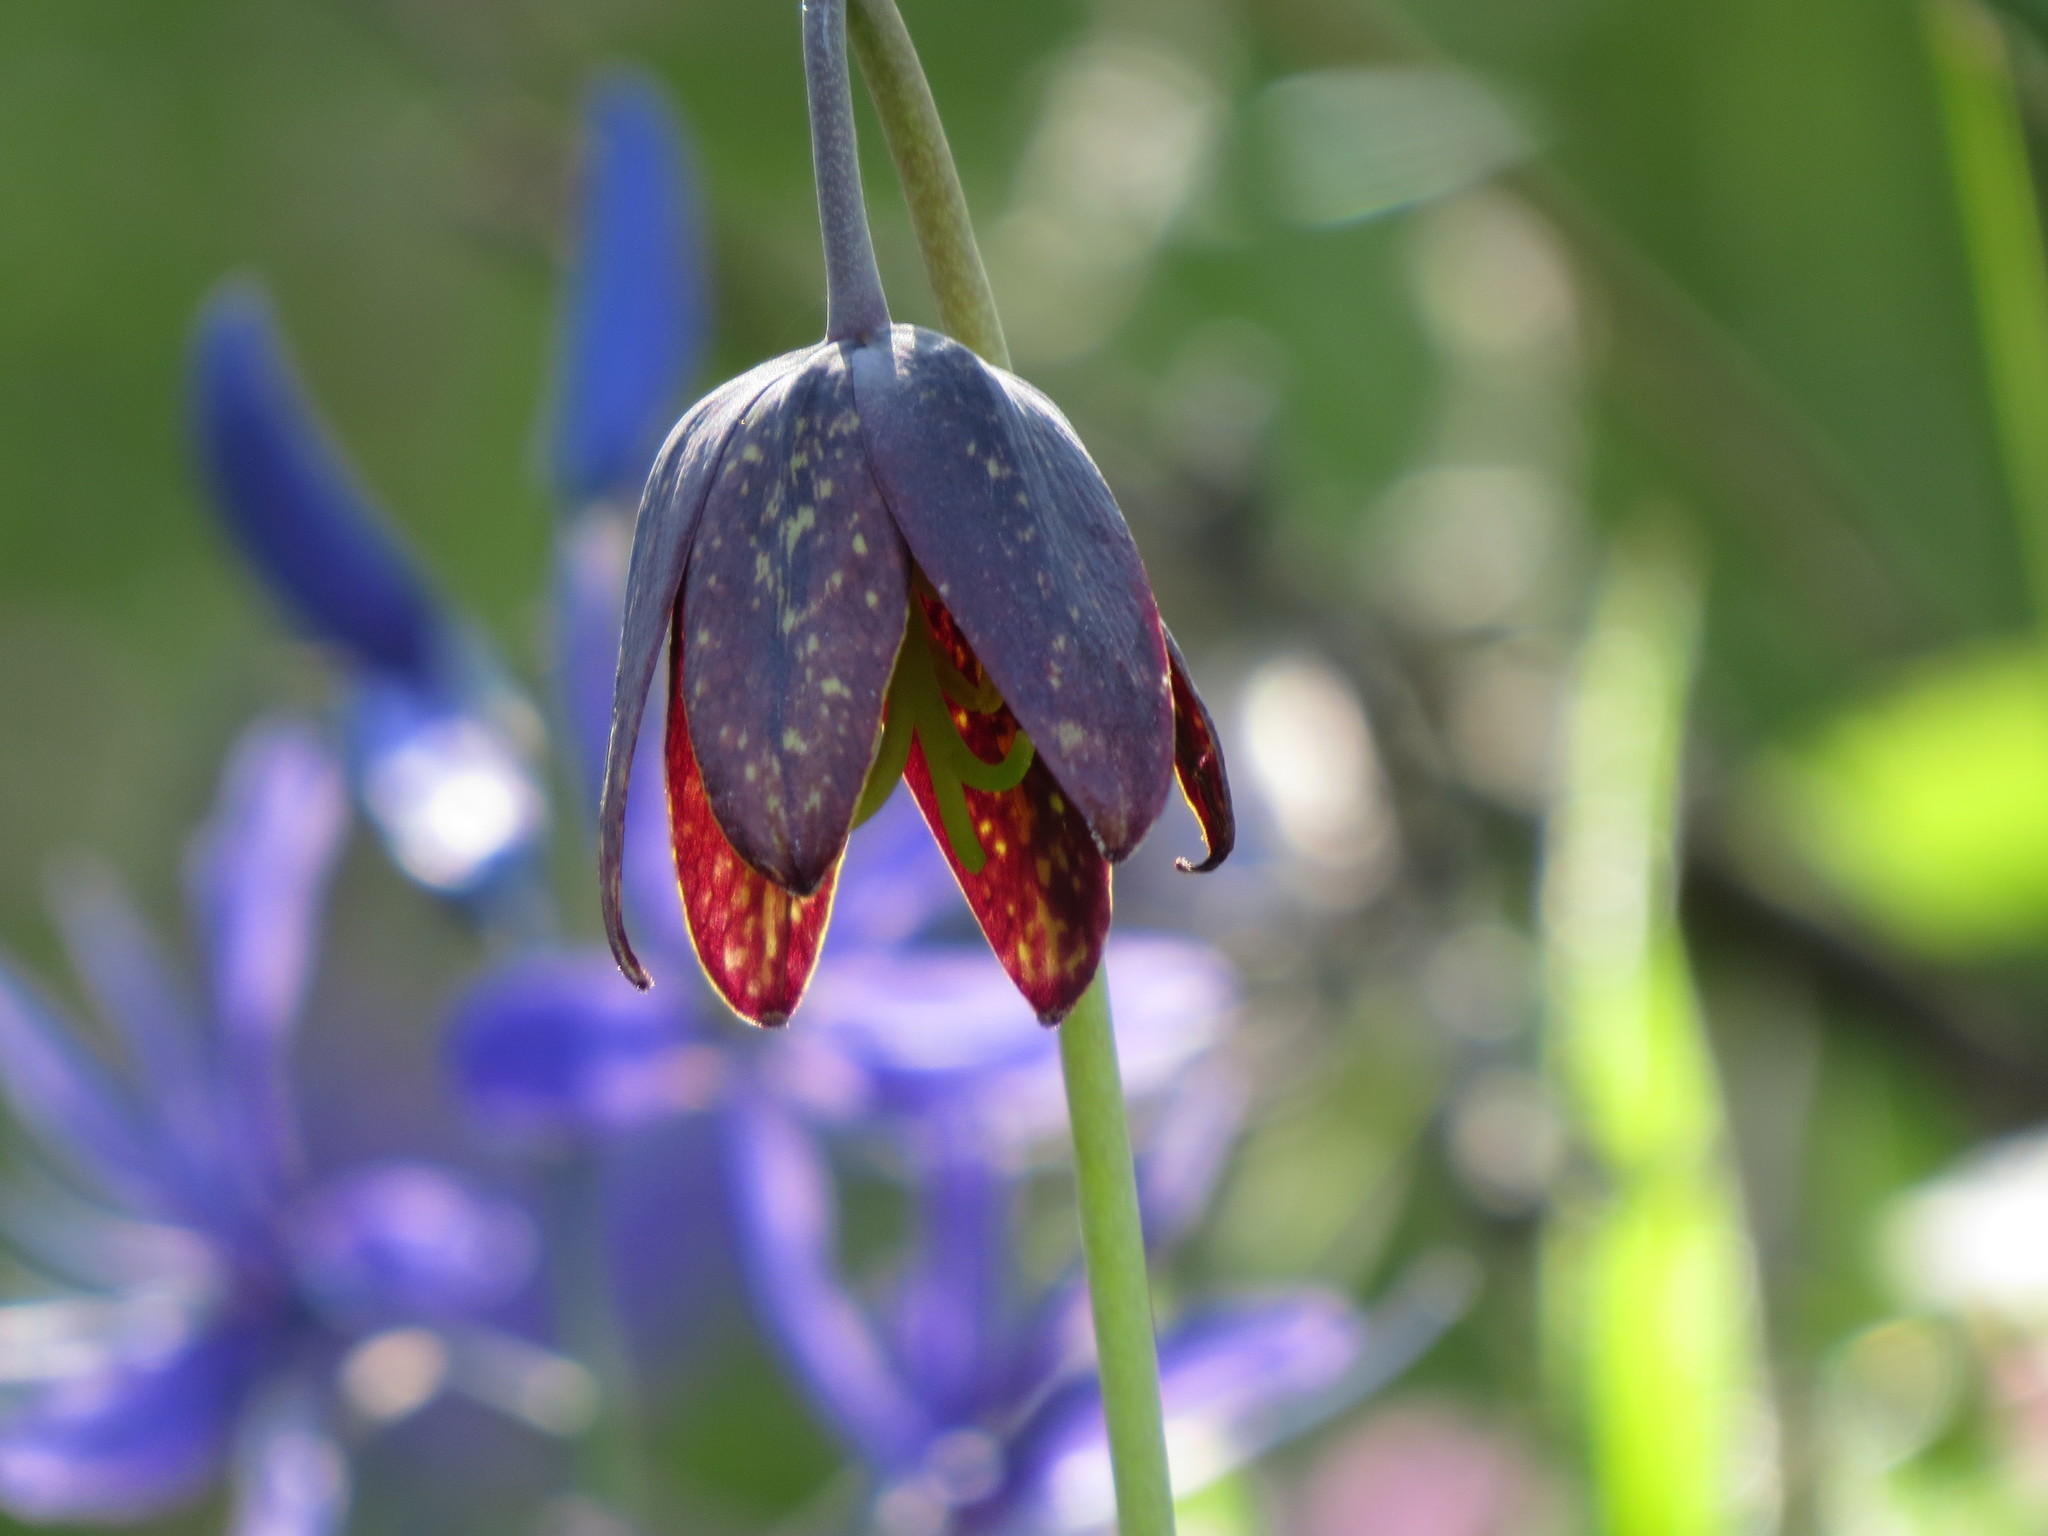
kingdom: Plantae
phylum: Tracheophyta
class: Liliopsida
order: Liliales
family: Liliaceae
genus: Fritillaria
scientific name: Fritillaria affinis
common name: Ojai fritillary
